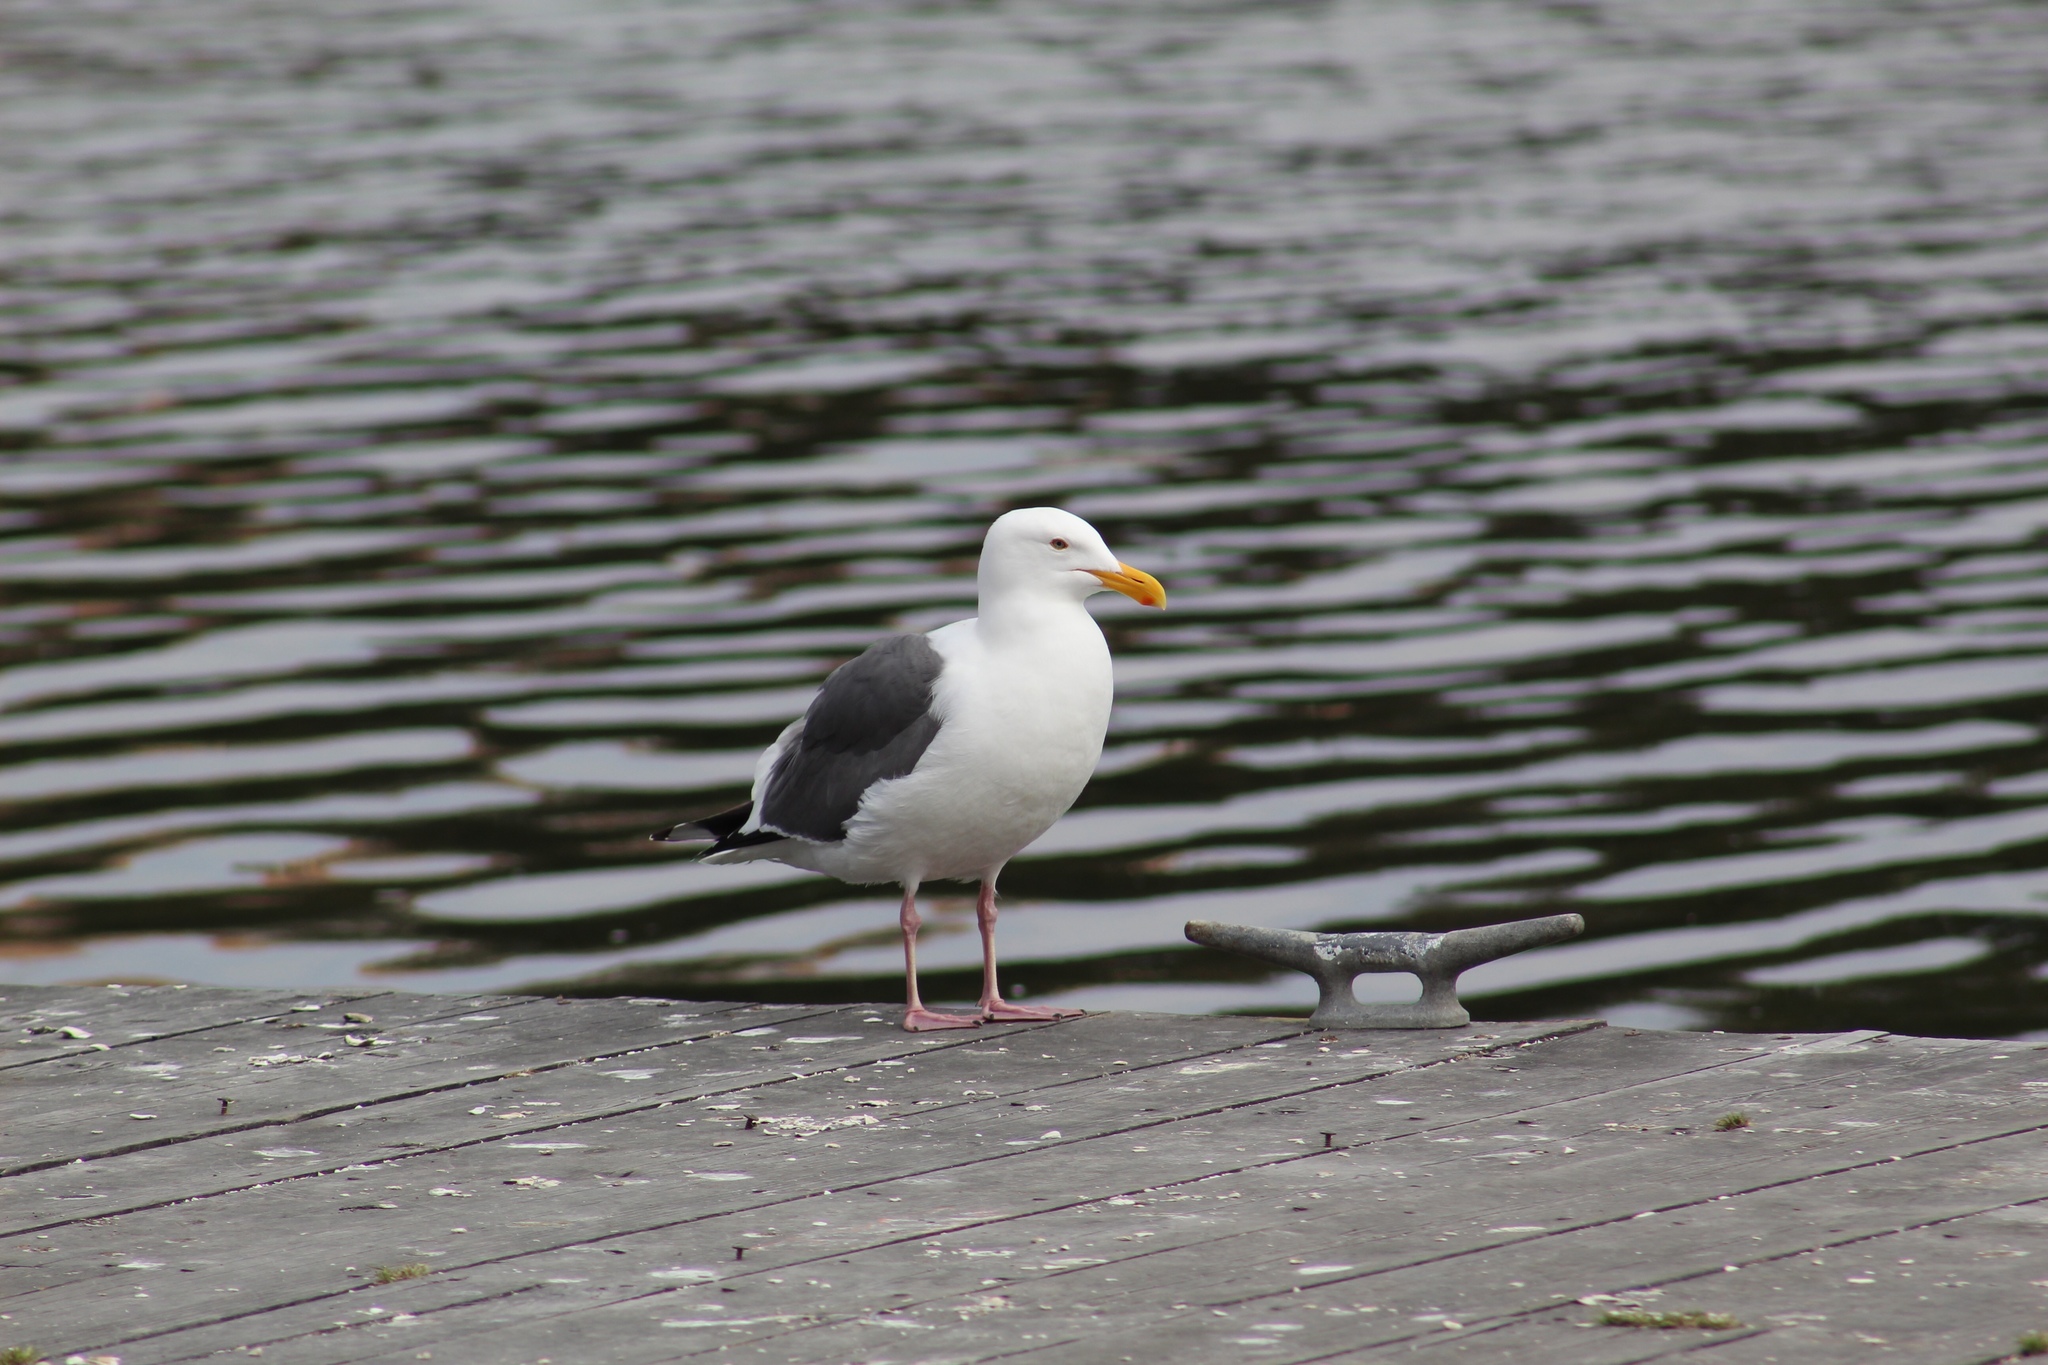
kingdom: Animalia
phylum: Chordata
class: Aves
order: Charadriiformes
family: Laridae
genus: Larus
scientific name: Larus occidentalis
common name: Western gull
